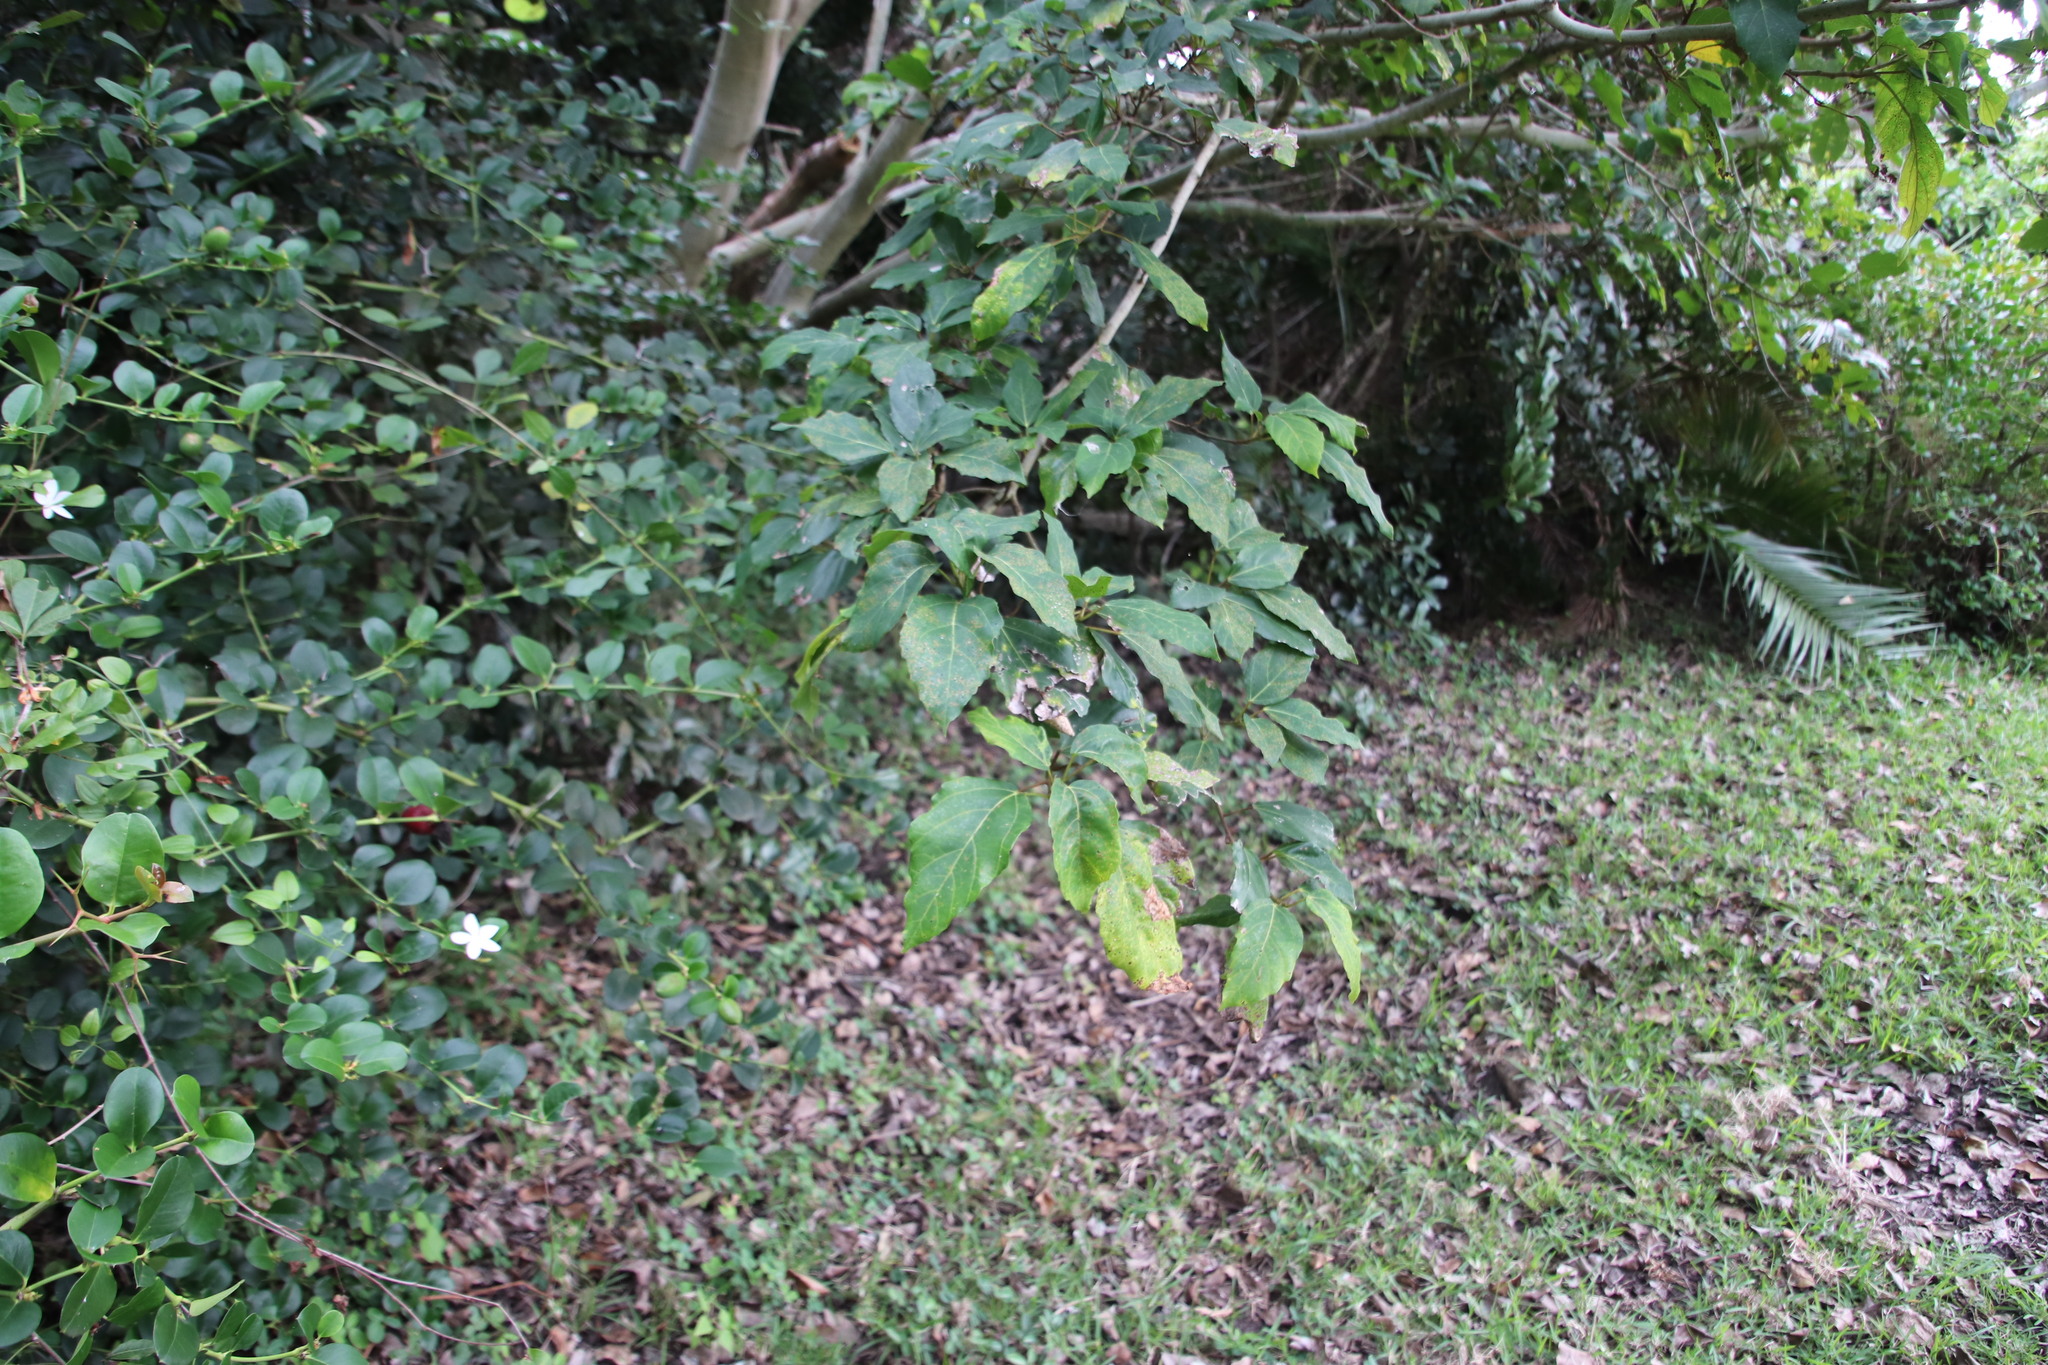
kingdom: Plantae
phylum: Tracheophyta
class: Magnoliopsida
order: Rosales
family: Moraceae
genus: Ficus
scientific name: Ficus sur
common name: Cape fig
